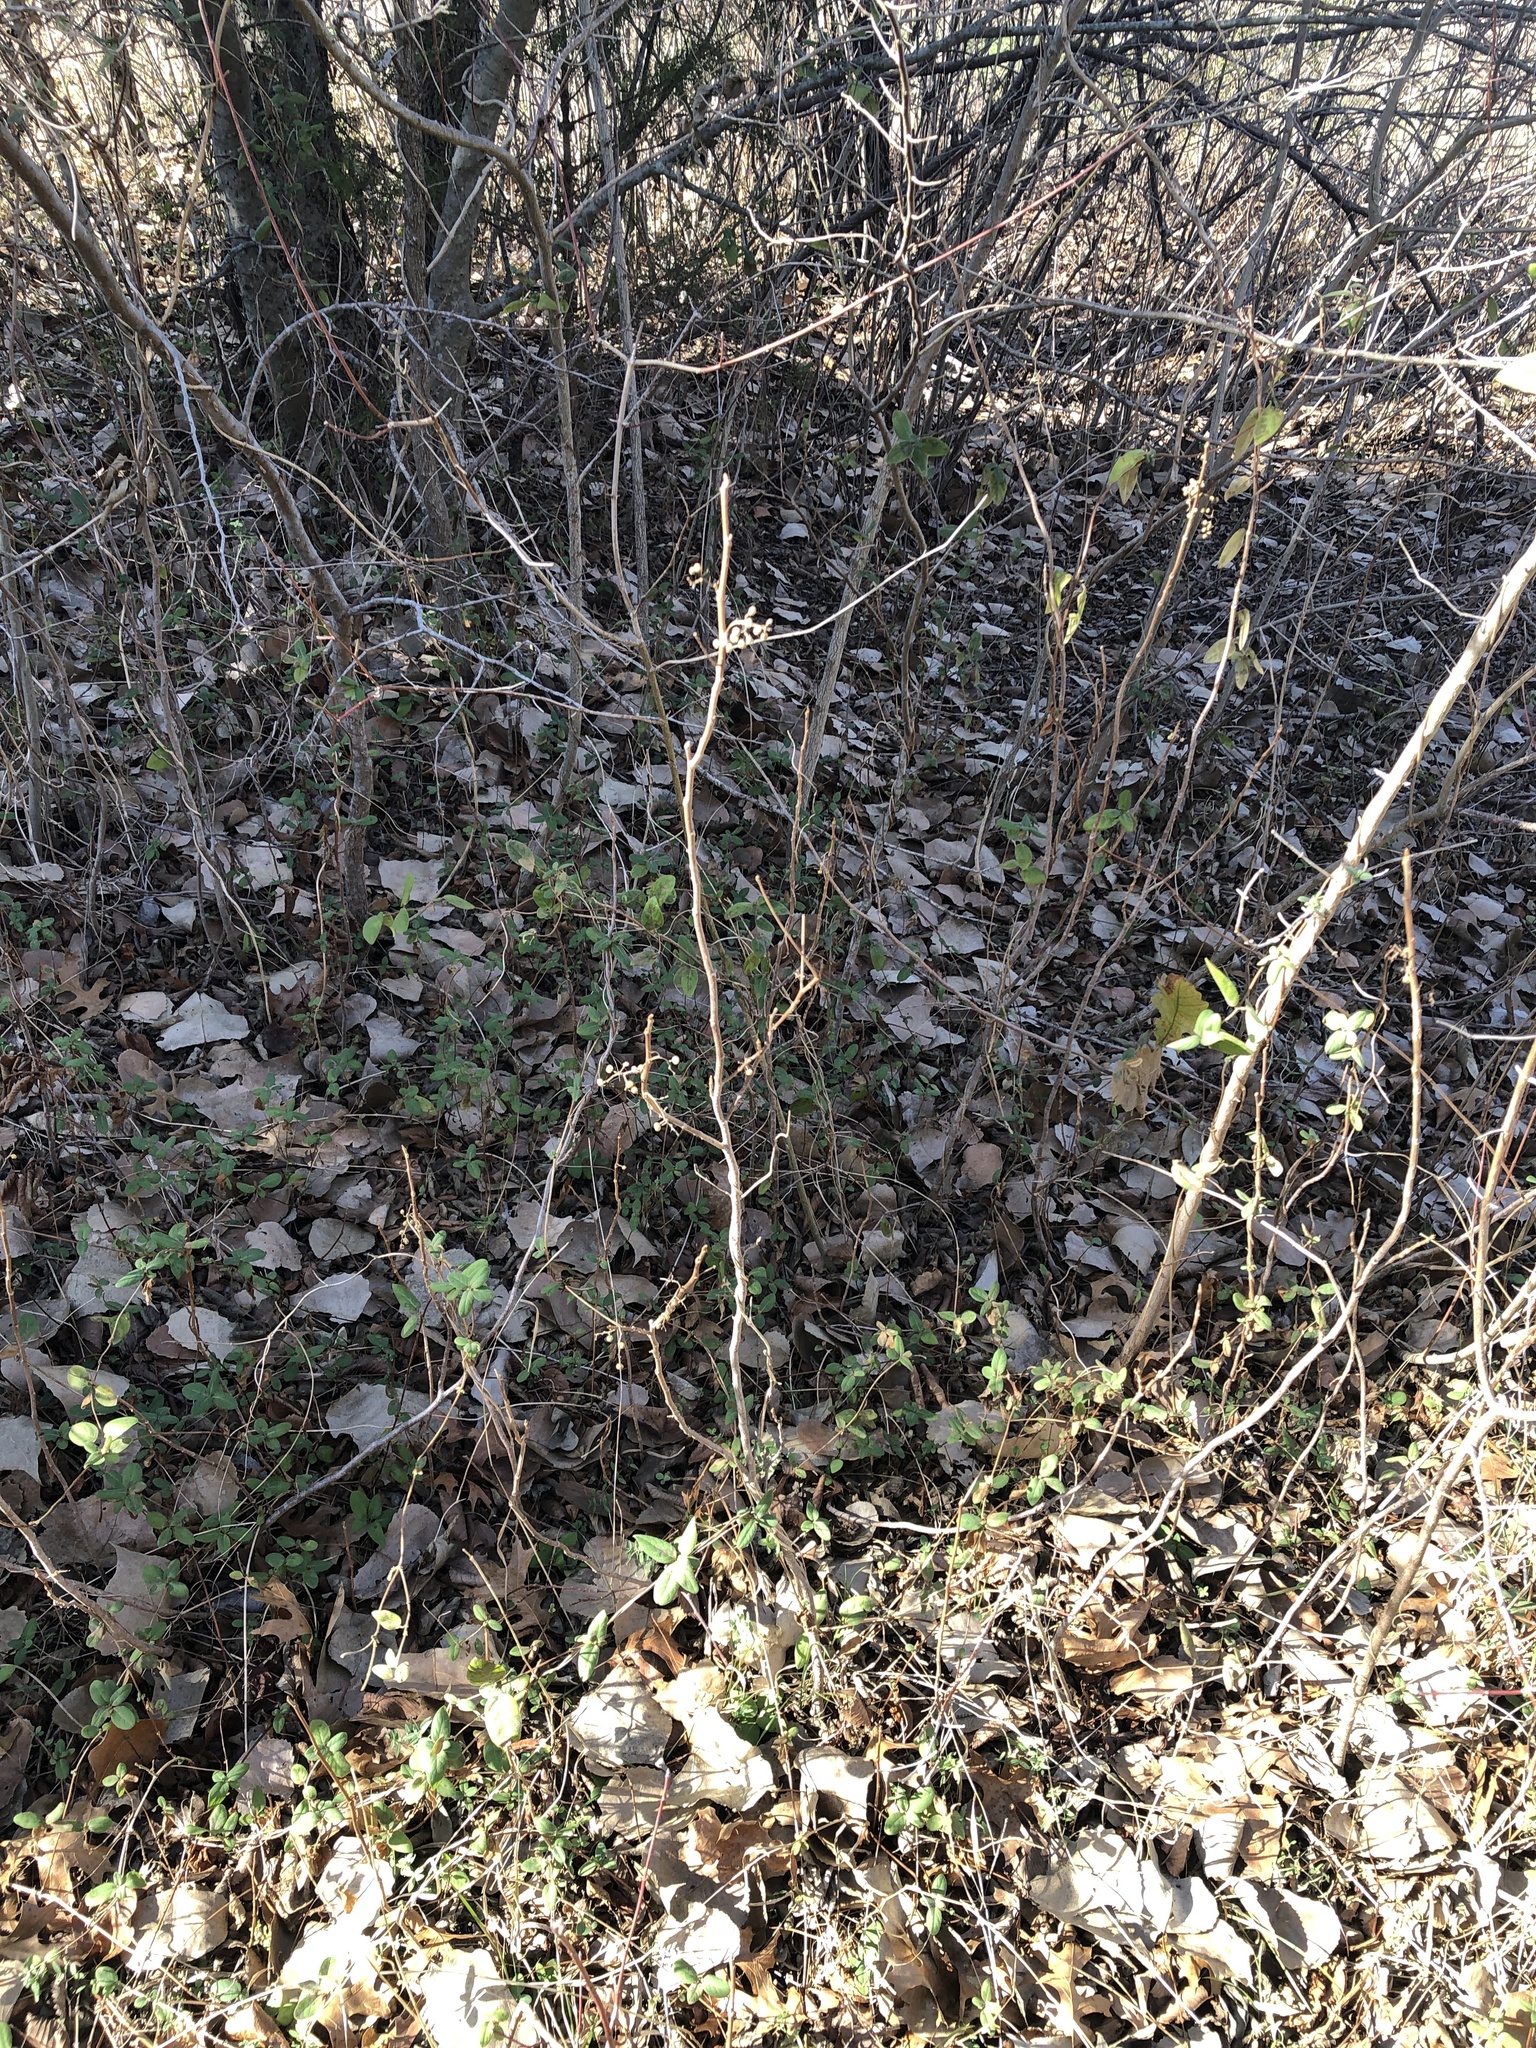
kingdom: Plantae
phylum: Tracheophyta
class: Magnoliopsida
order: Sapindales
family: Anacardiaceae
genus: Toxicodendron
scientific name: Toxicodendron radicans
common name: Poison ivy
